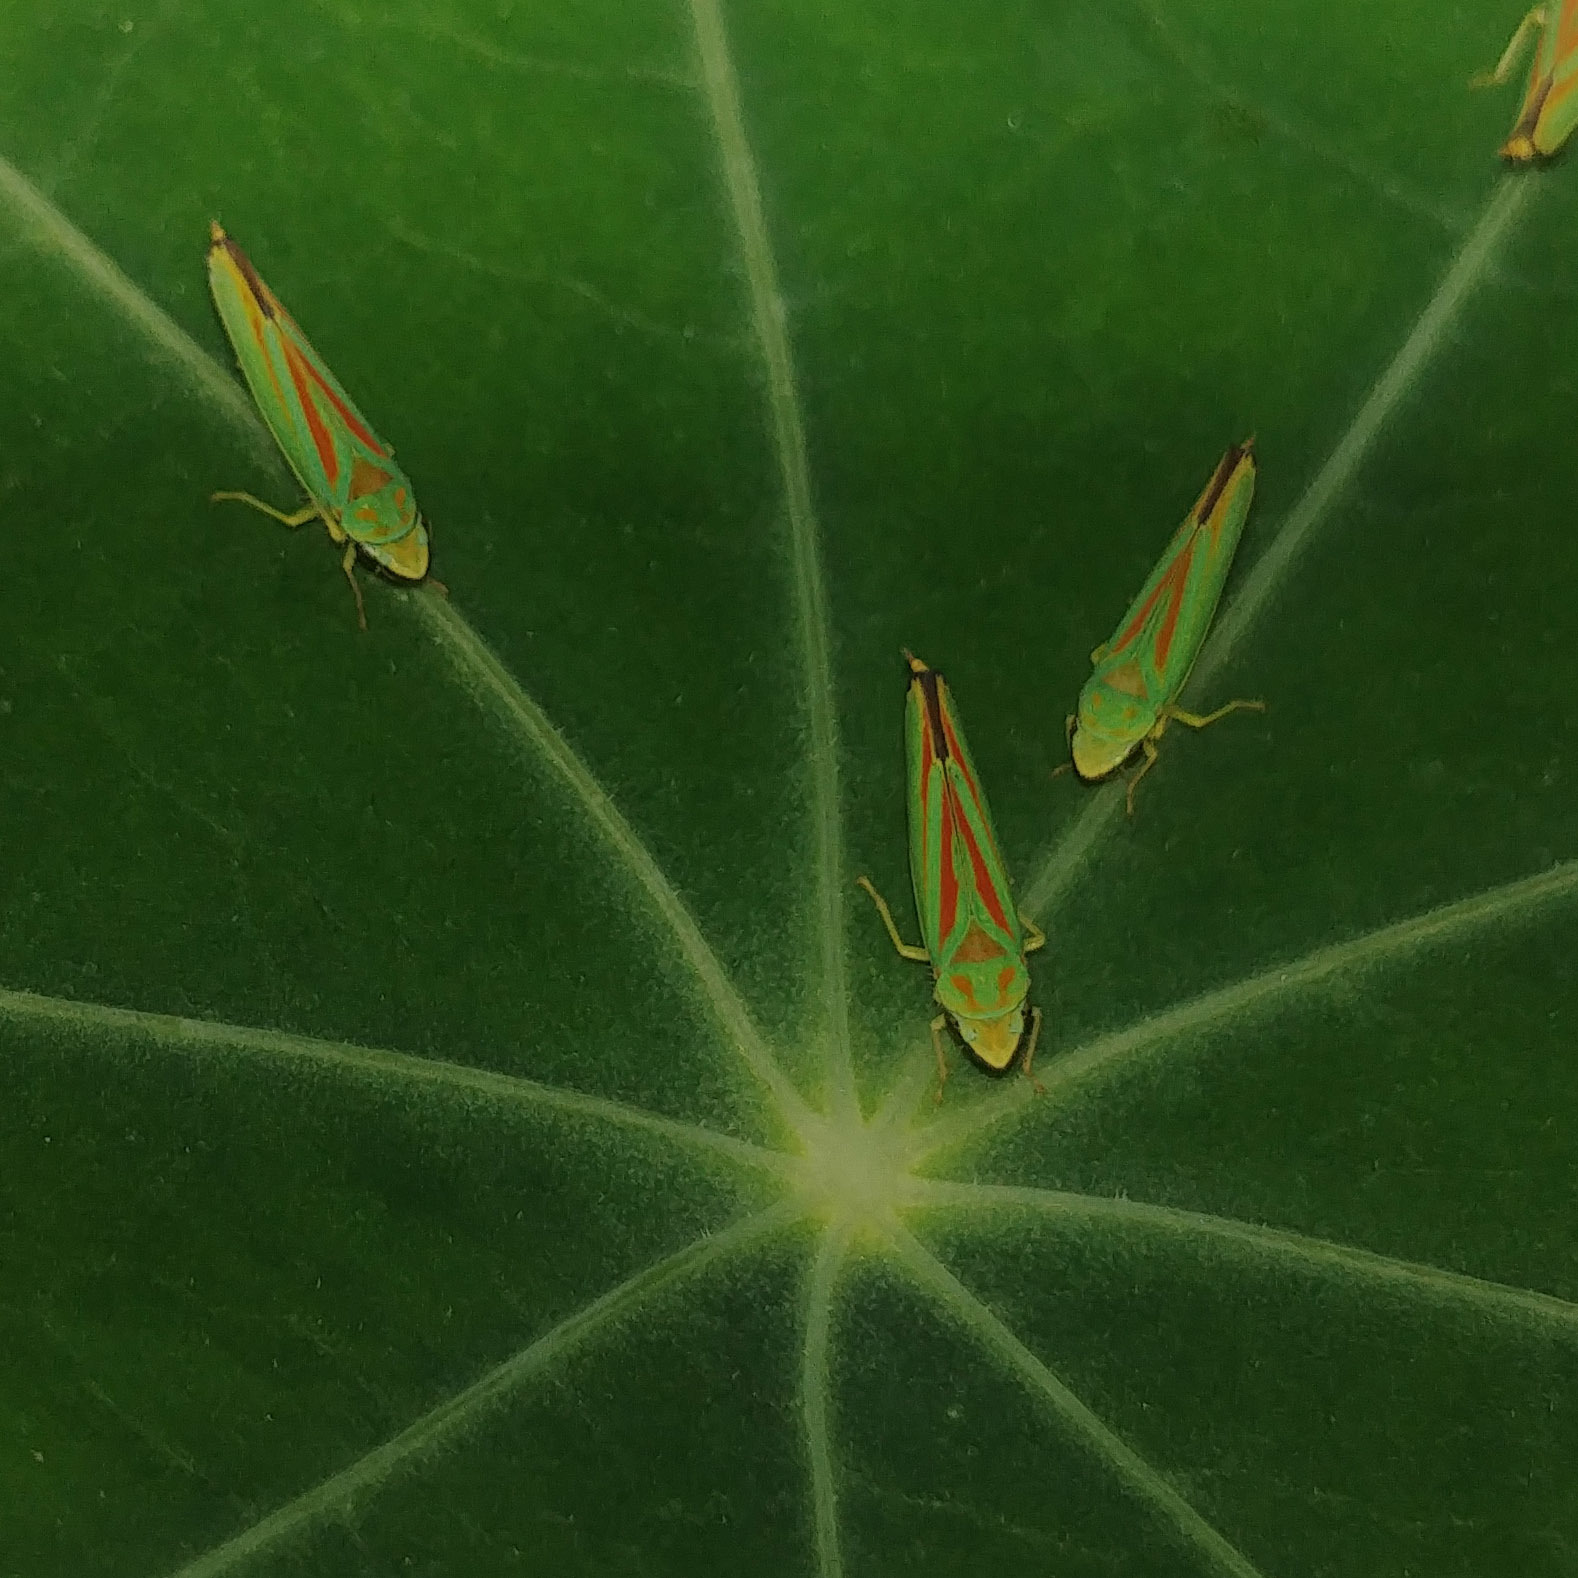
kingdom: Animalia
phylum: Arthropoda
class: Insecta
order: Hemiptera
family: Cicadellidae
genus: Graphocephala
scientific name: Graphocephala fennahi
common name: Rhododendron leafhopper
